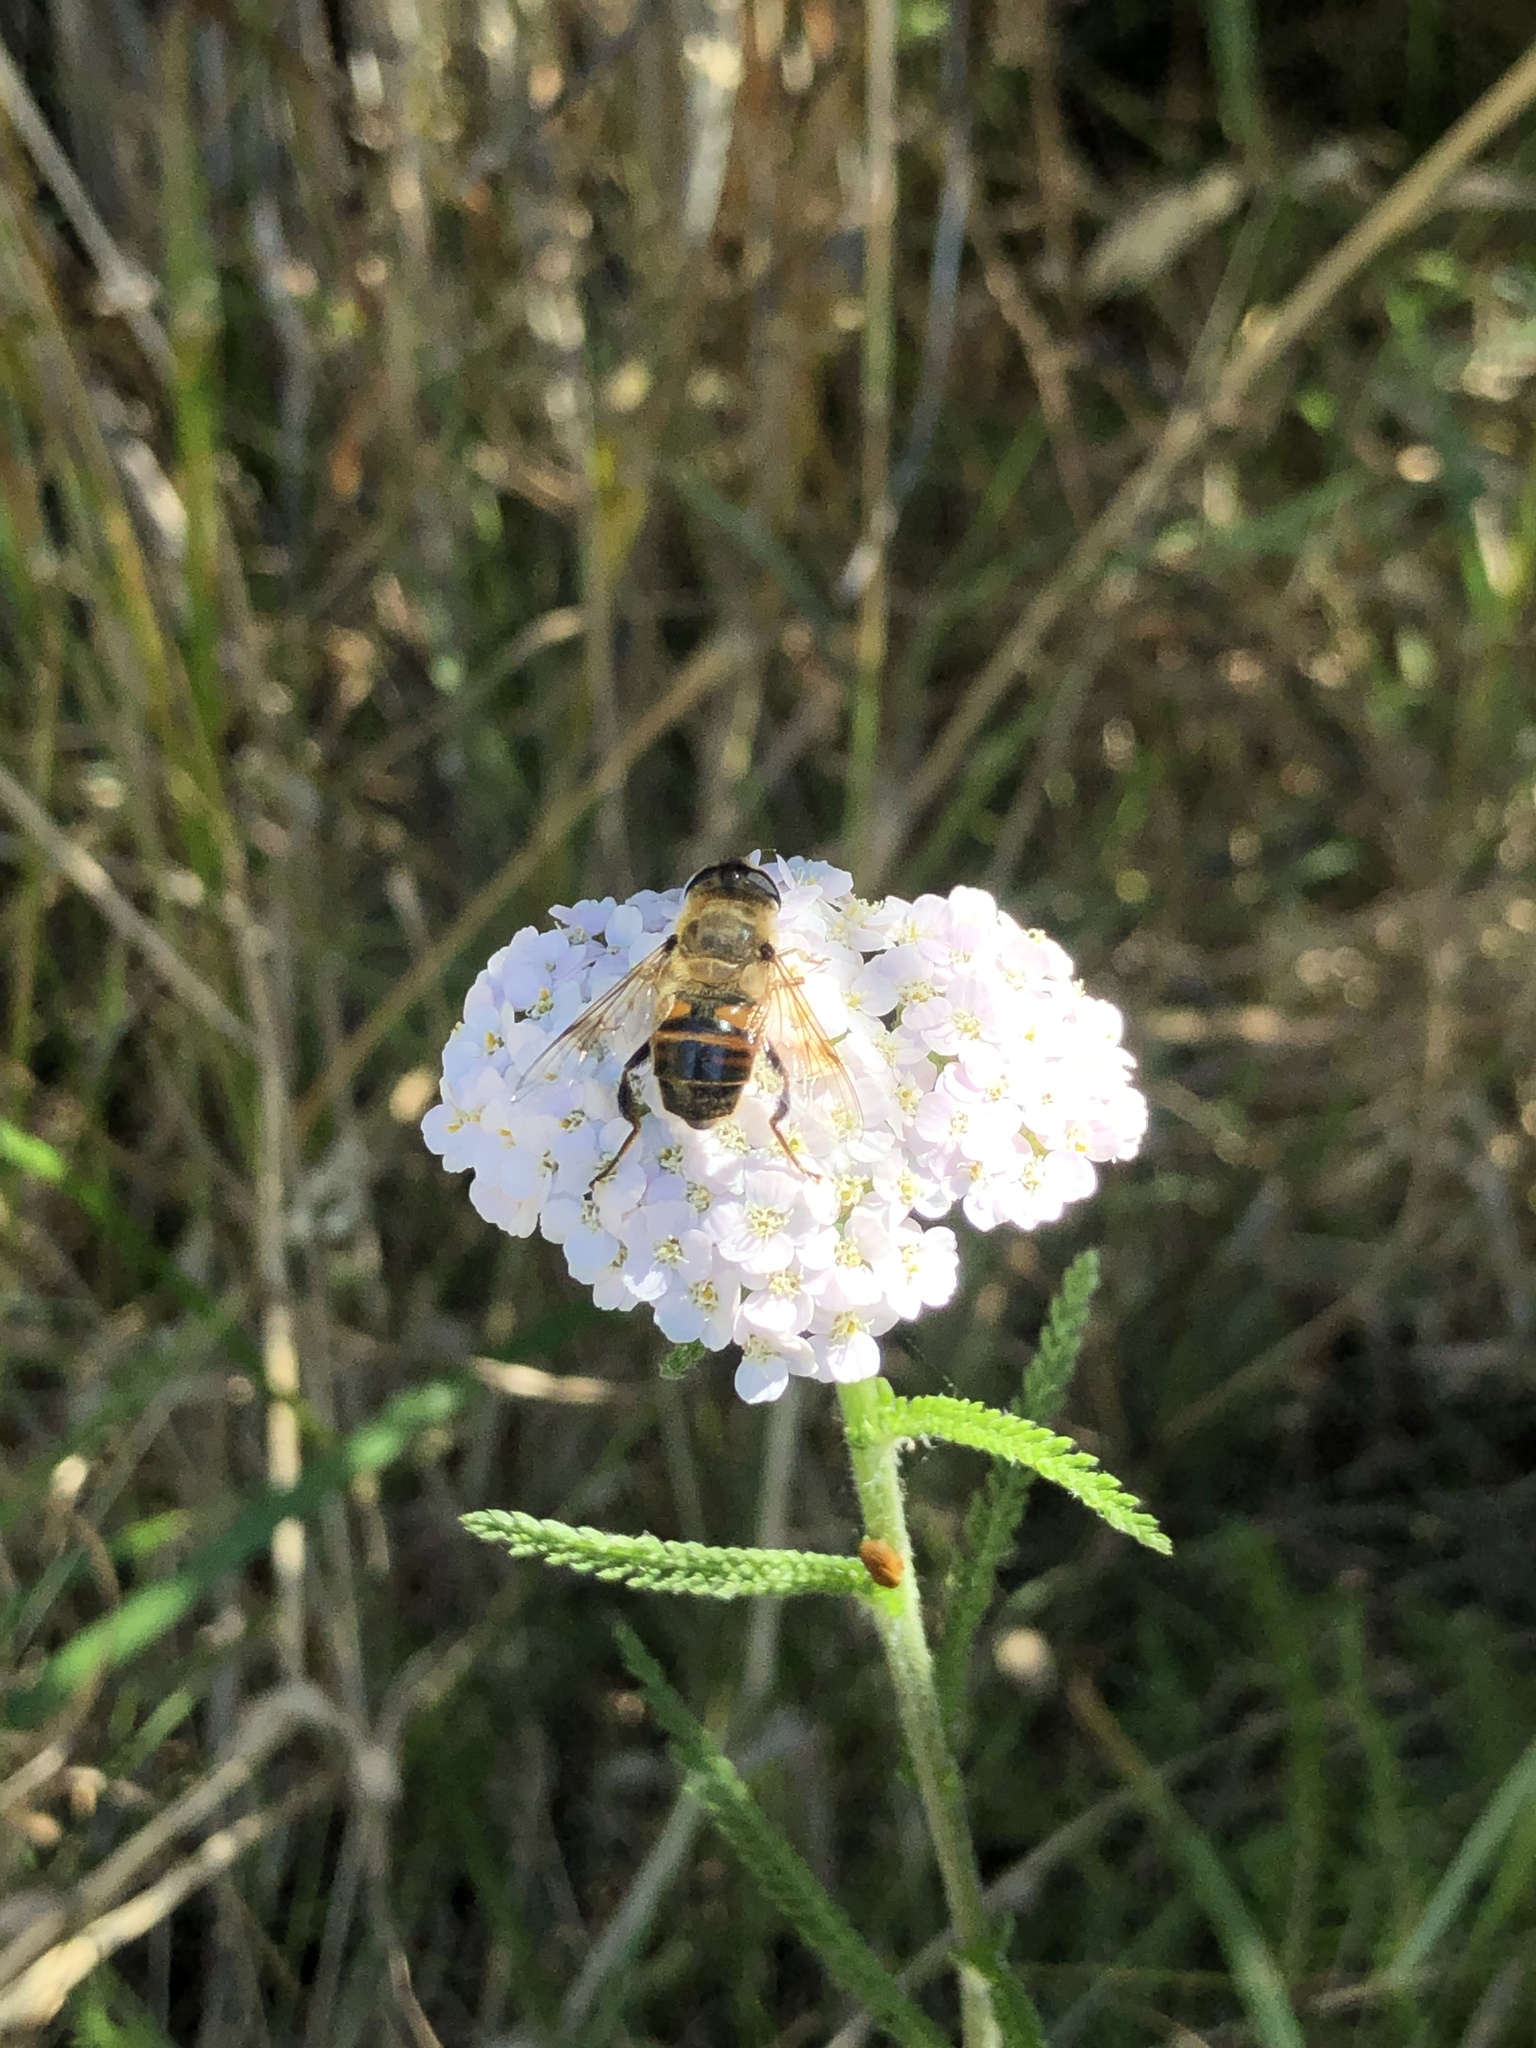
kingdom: Animalia
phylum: Arthropoda
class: Insecta
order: Diptera
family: Syrphidae
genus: Eristalis
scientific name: Eristalis tenax
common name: Drone fly
